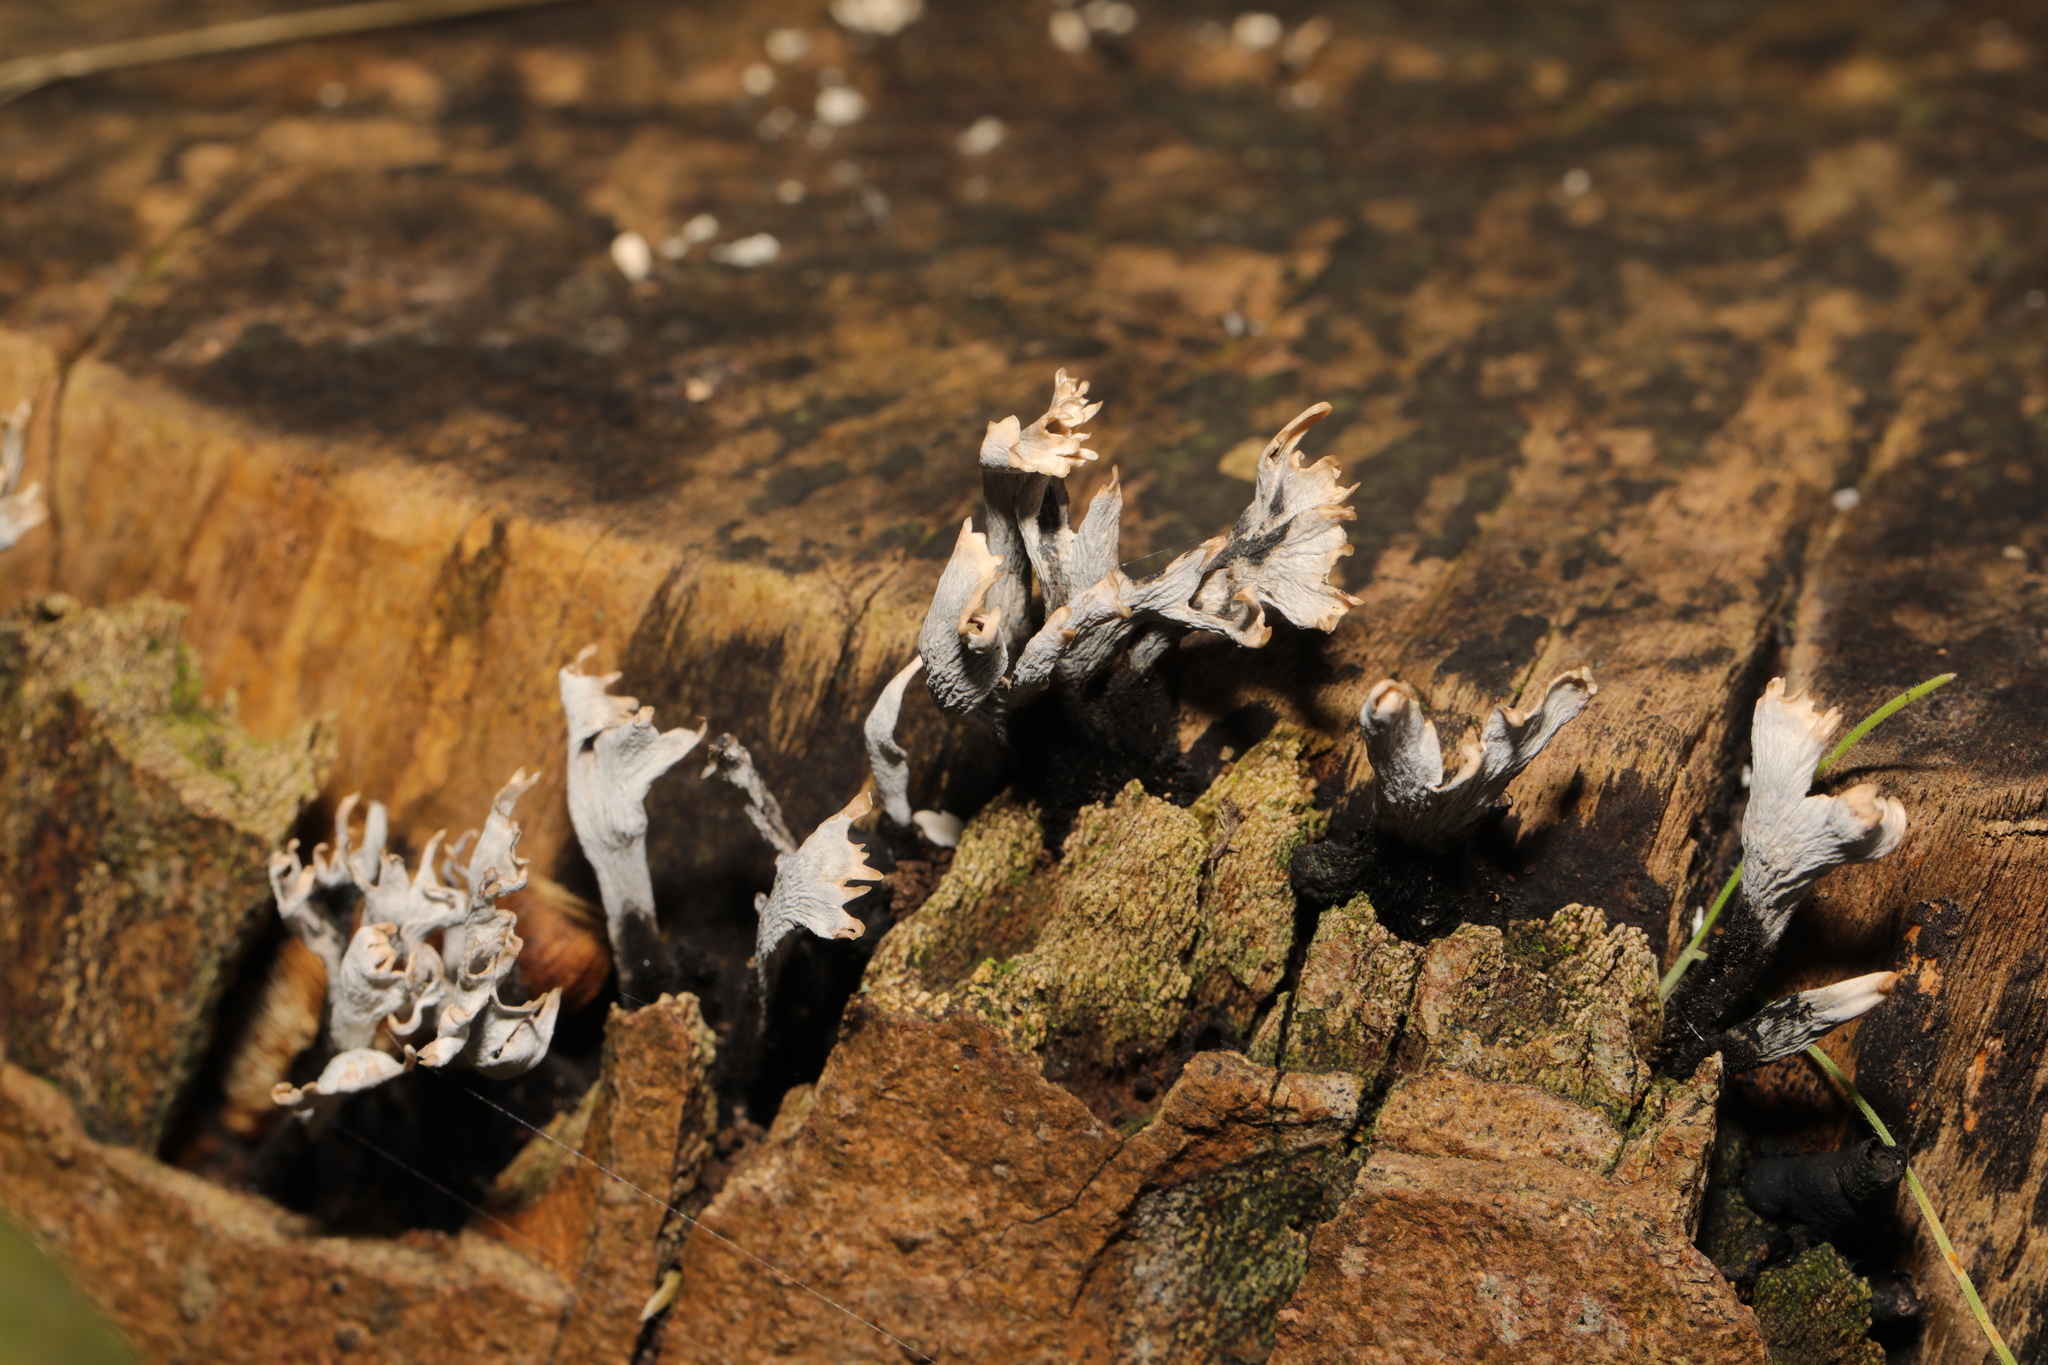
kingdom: Fungi
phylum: Ascomycota
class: Sordariomycetes
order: Xylariales
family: Xylariaceae
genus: Xylaria
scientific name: Xylaria hypoxylon
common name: Candle-snuff fungus
